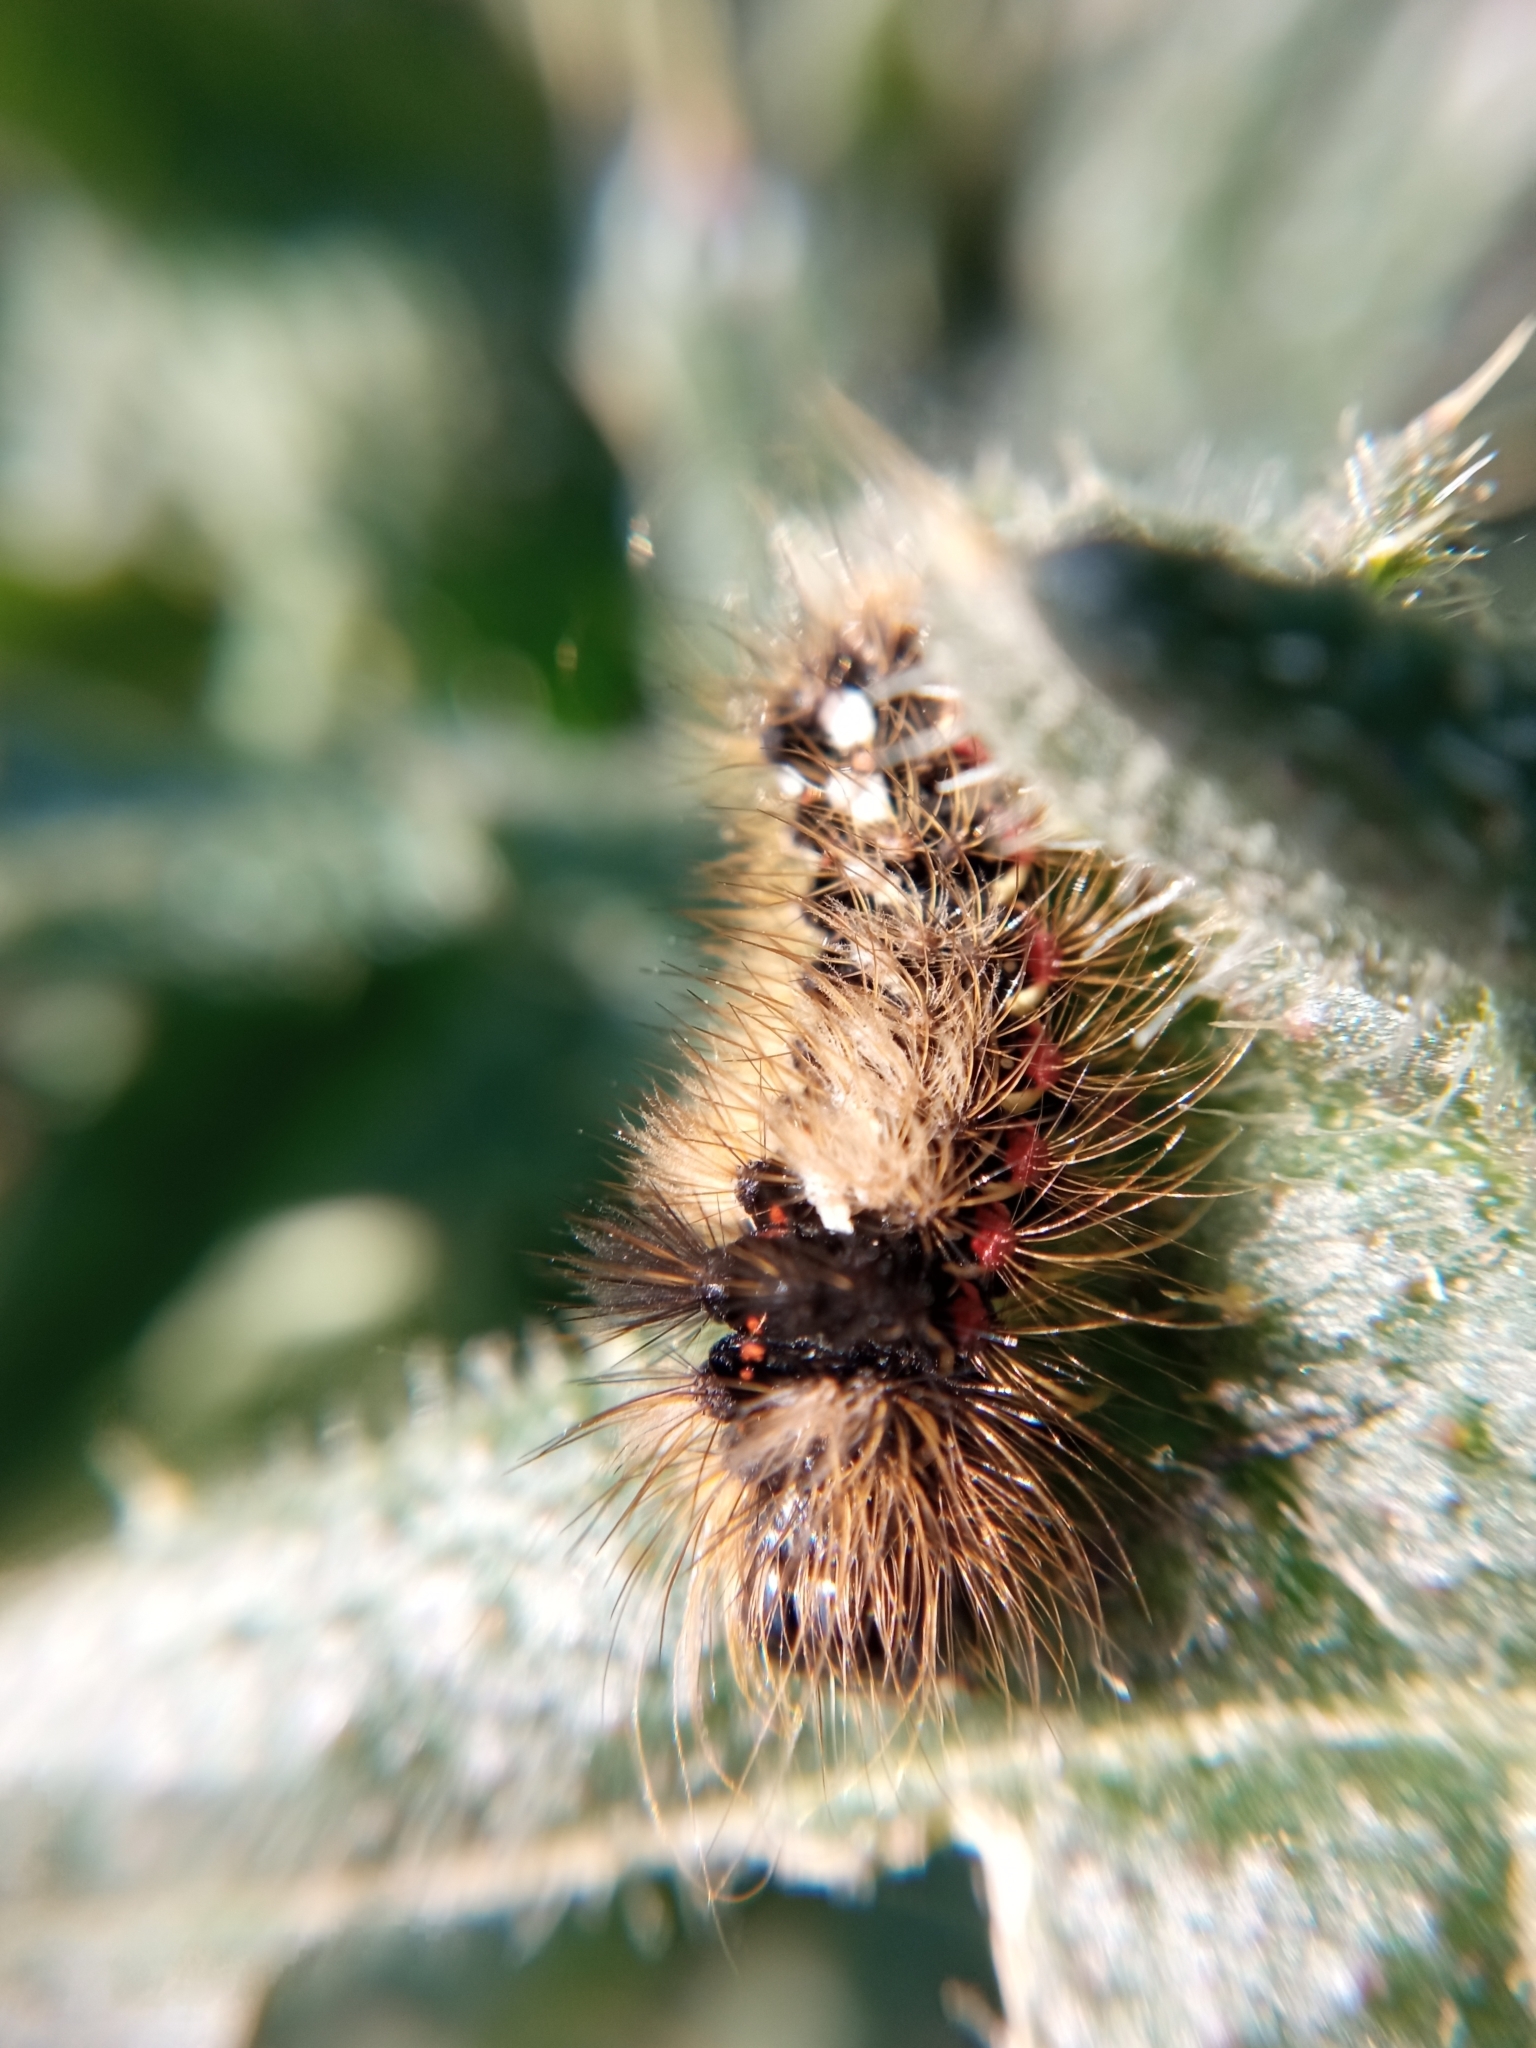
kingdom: Animalia
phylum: Arthropoda
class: Insecta
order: Lepidoptera
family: Noctuidae
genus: Acronicta
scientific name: Acronicta rumicis
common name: Knot grass
